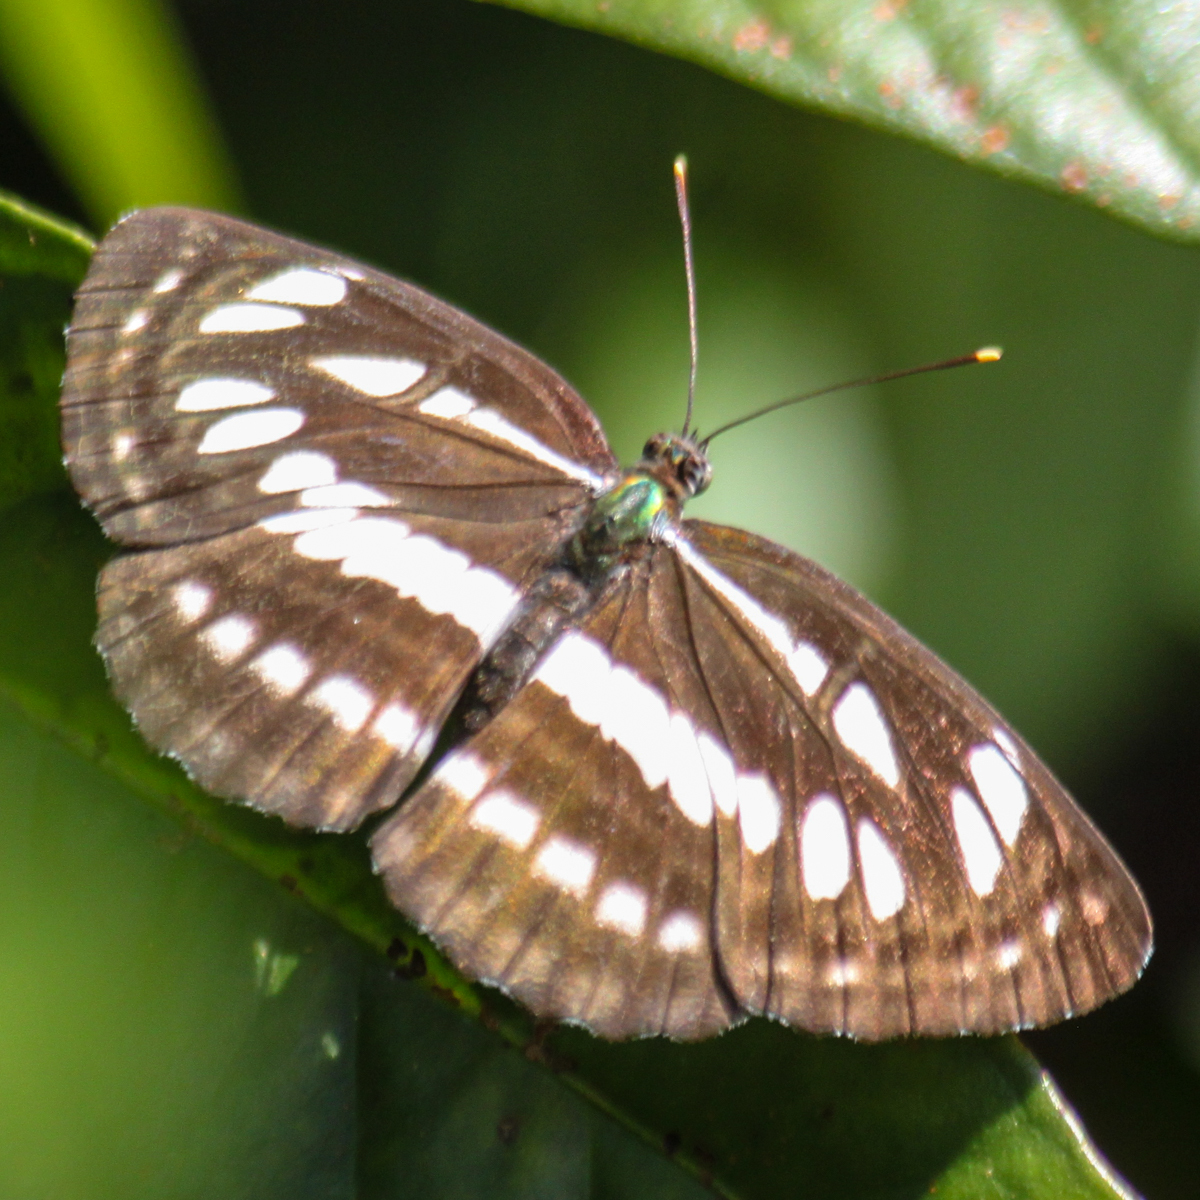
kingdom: Animalia
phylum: Arthropoda
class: Insecta
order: Lepidoptera
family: Nymphalidae
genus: Neptis
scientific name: Neptis hylas
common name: Common sailer
